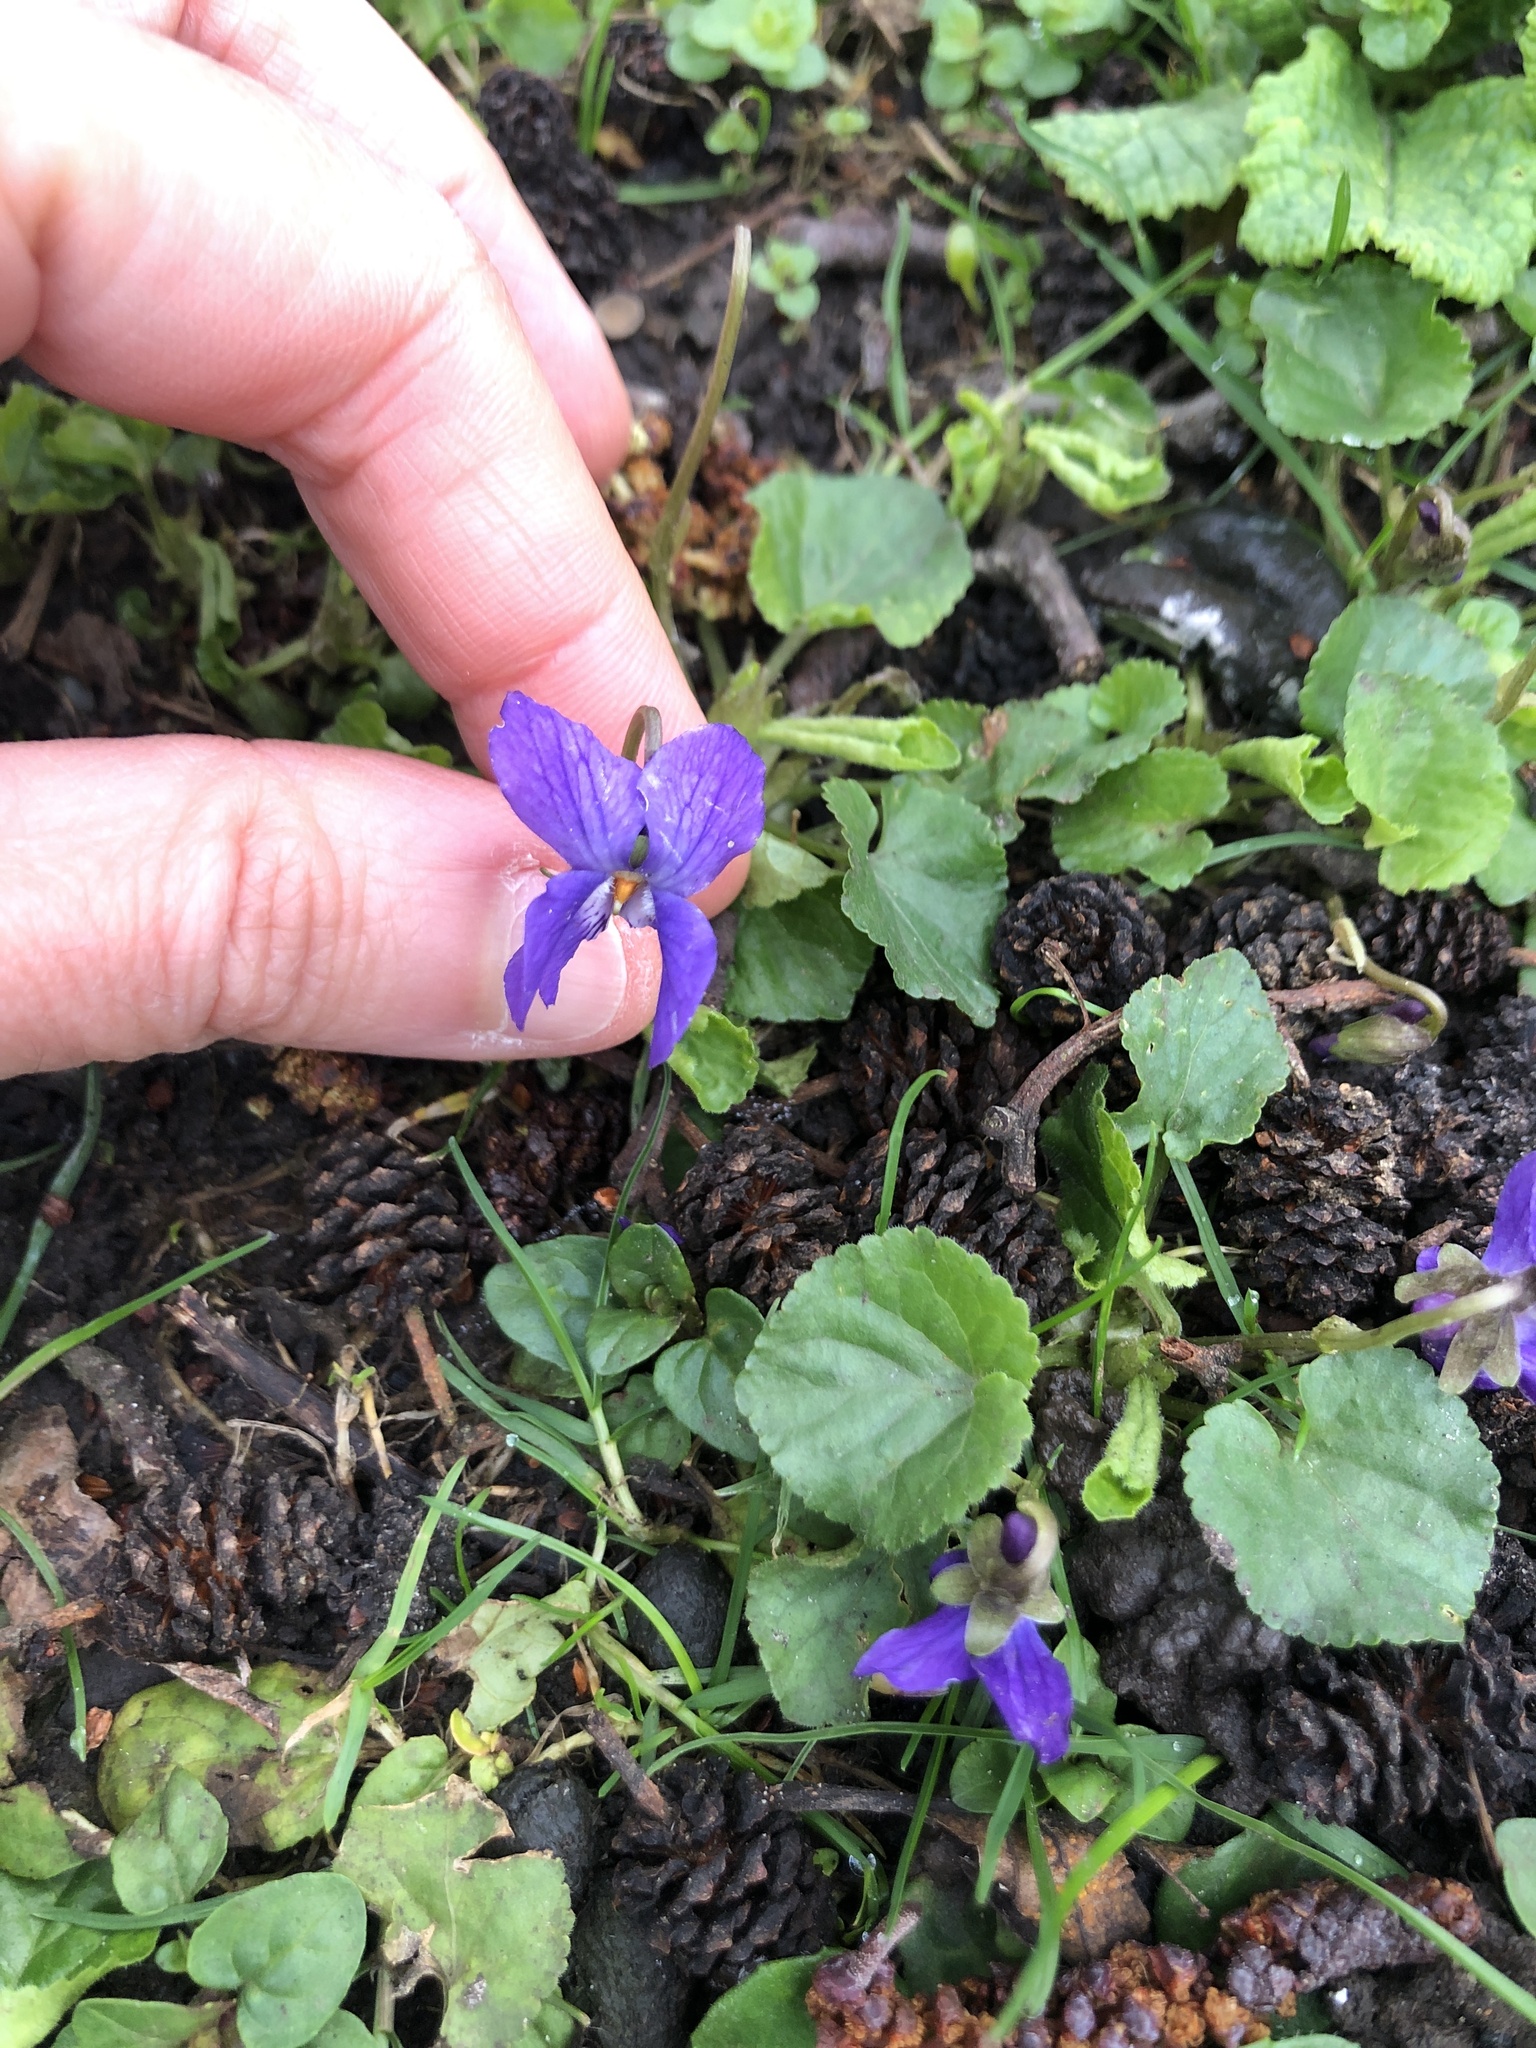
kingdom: Plantae
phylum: Tracheophyta
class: Magnoliopsida
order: Malpighiales
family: Violaceae
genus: Viola
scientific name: Viola odorata
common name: Sweet violet
